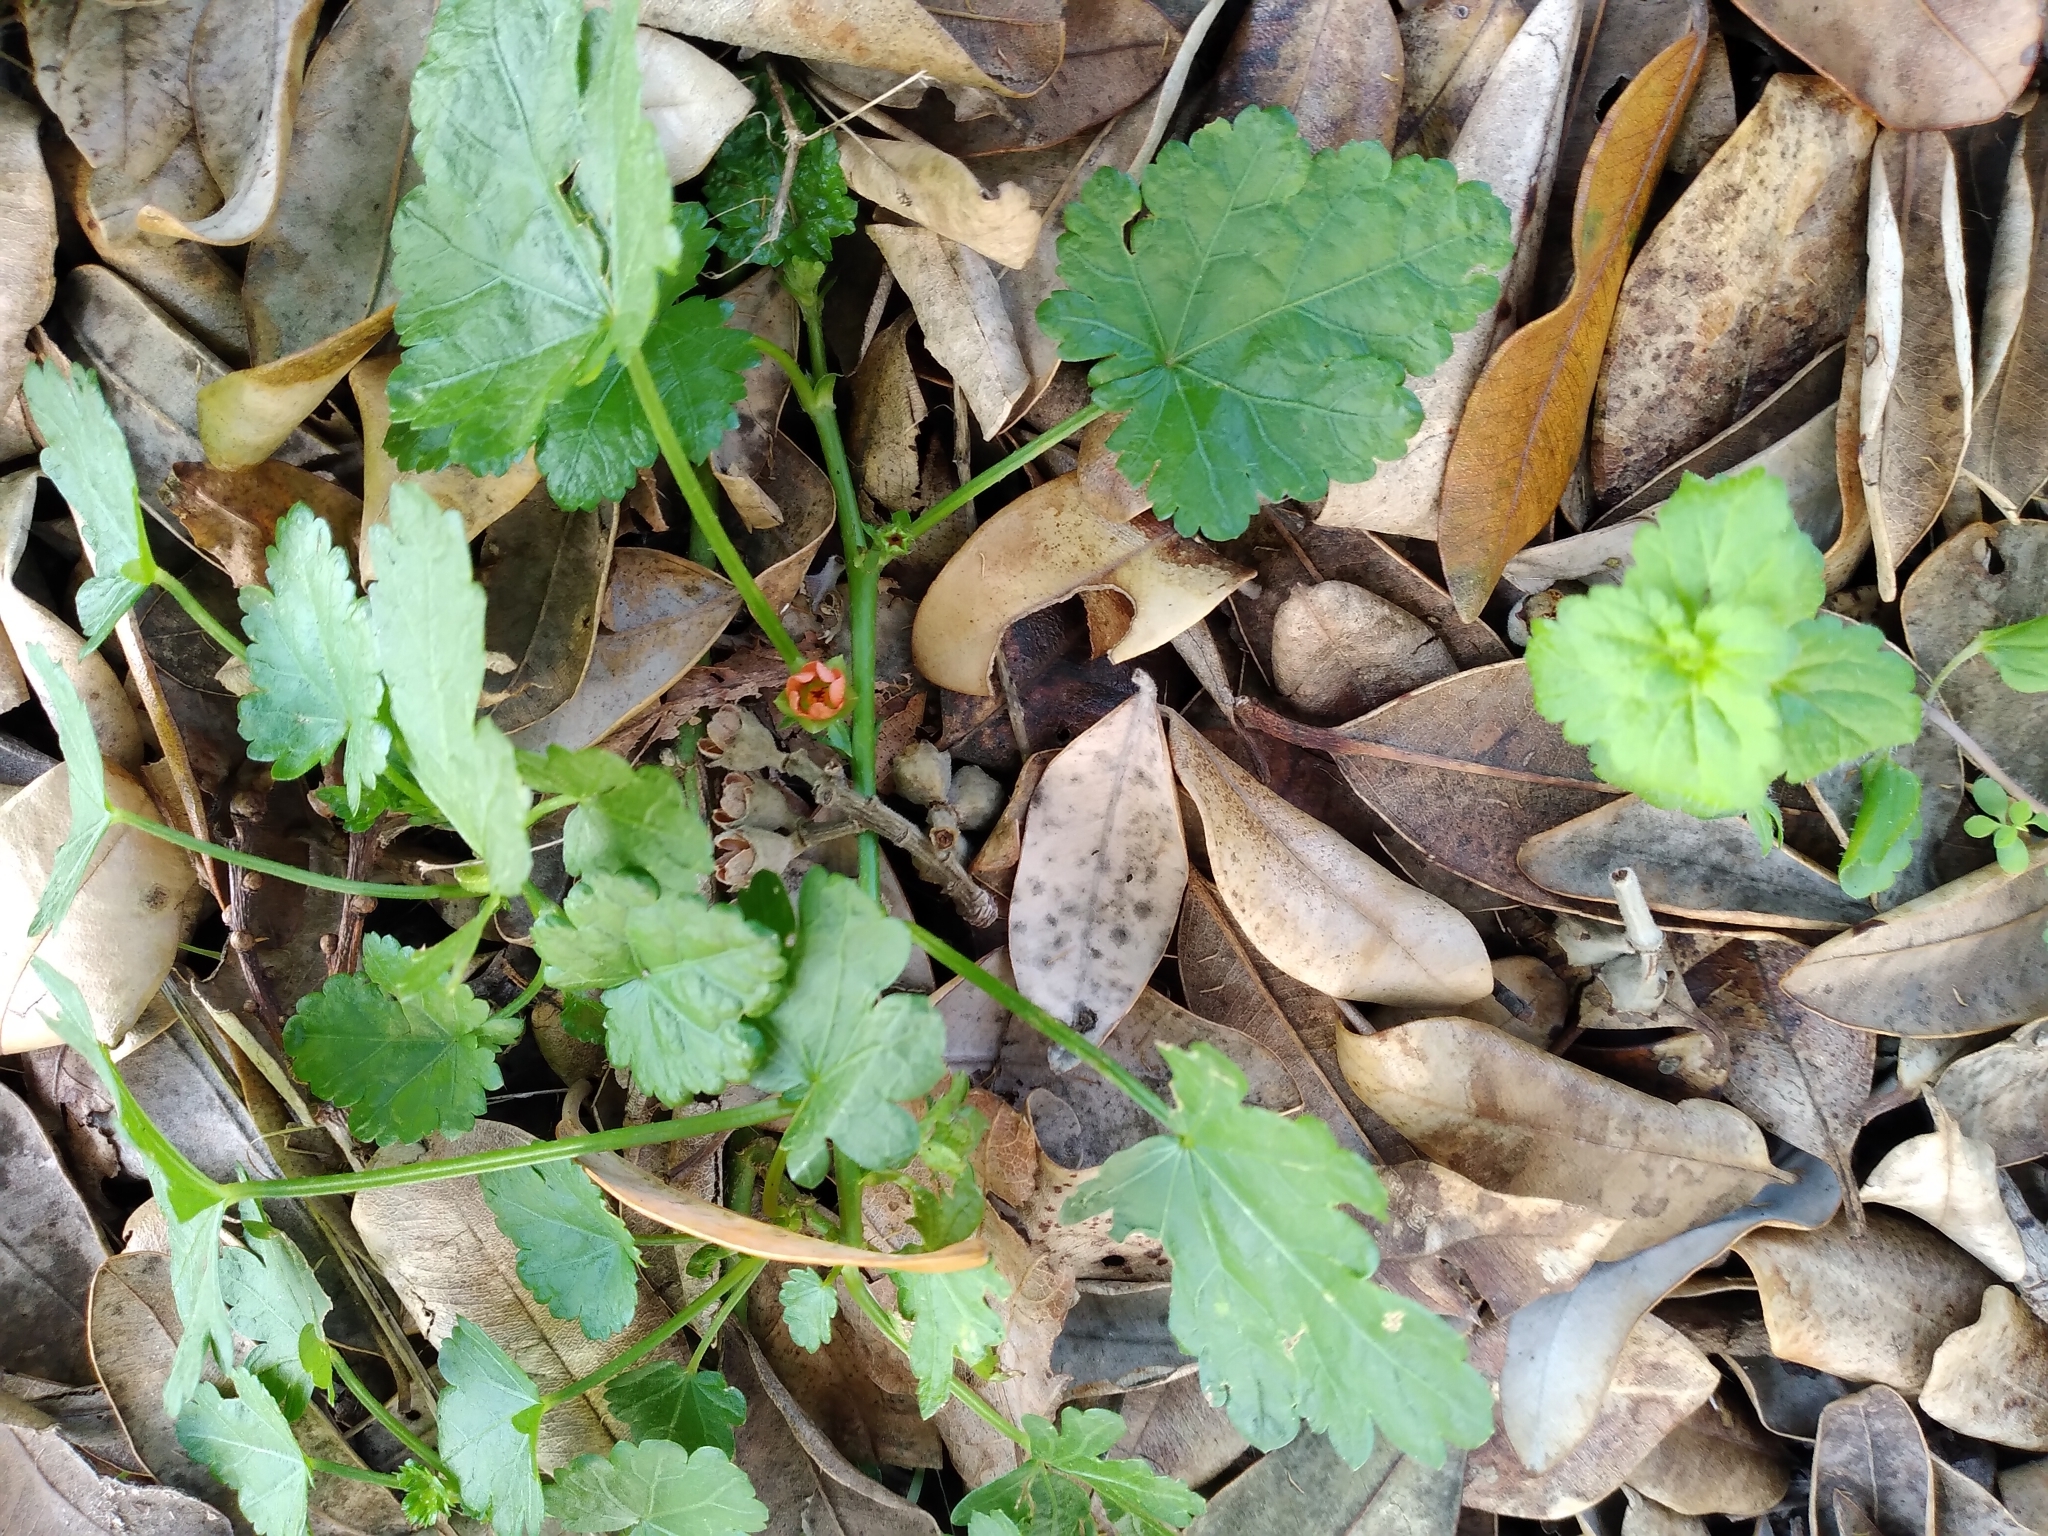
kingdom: Plantae
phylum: Tracheophyta
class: Magnoliopsida
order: Malvales
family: Malvaceae
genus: Modiola
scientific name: Modiola caroliniana
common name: Carolina bristlemallow
